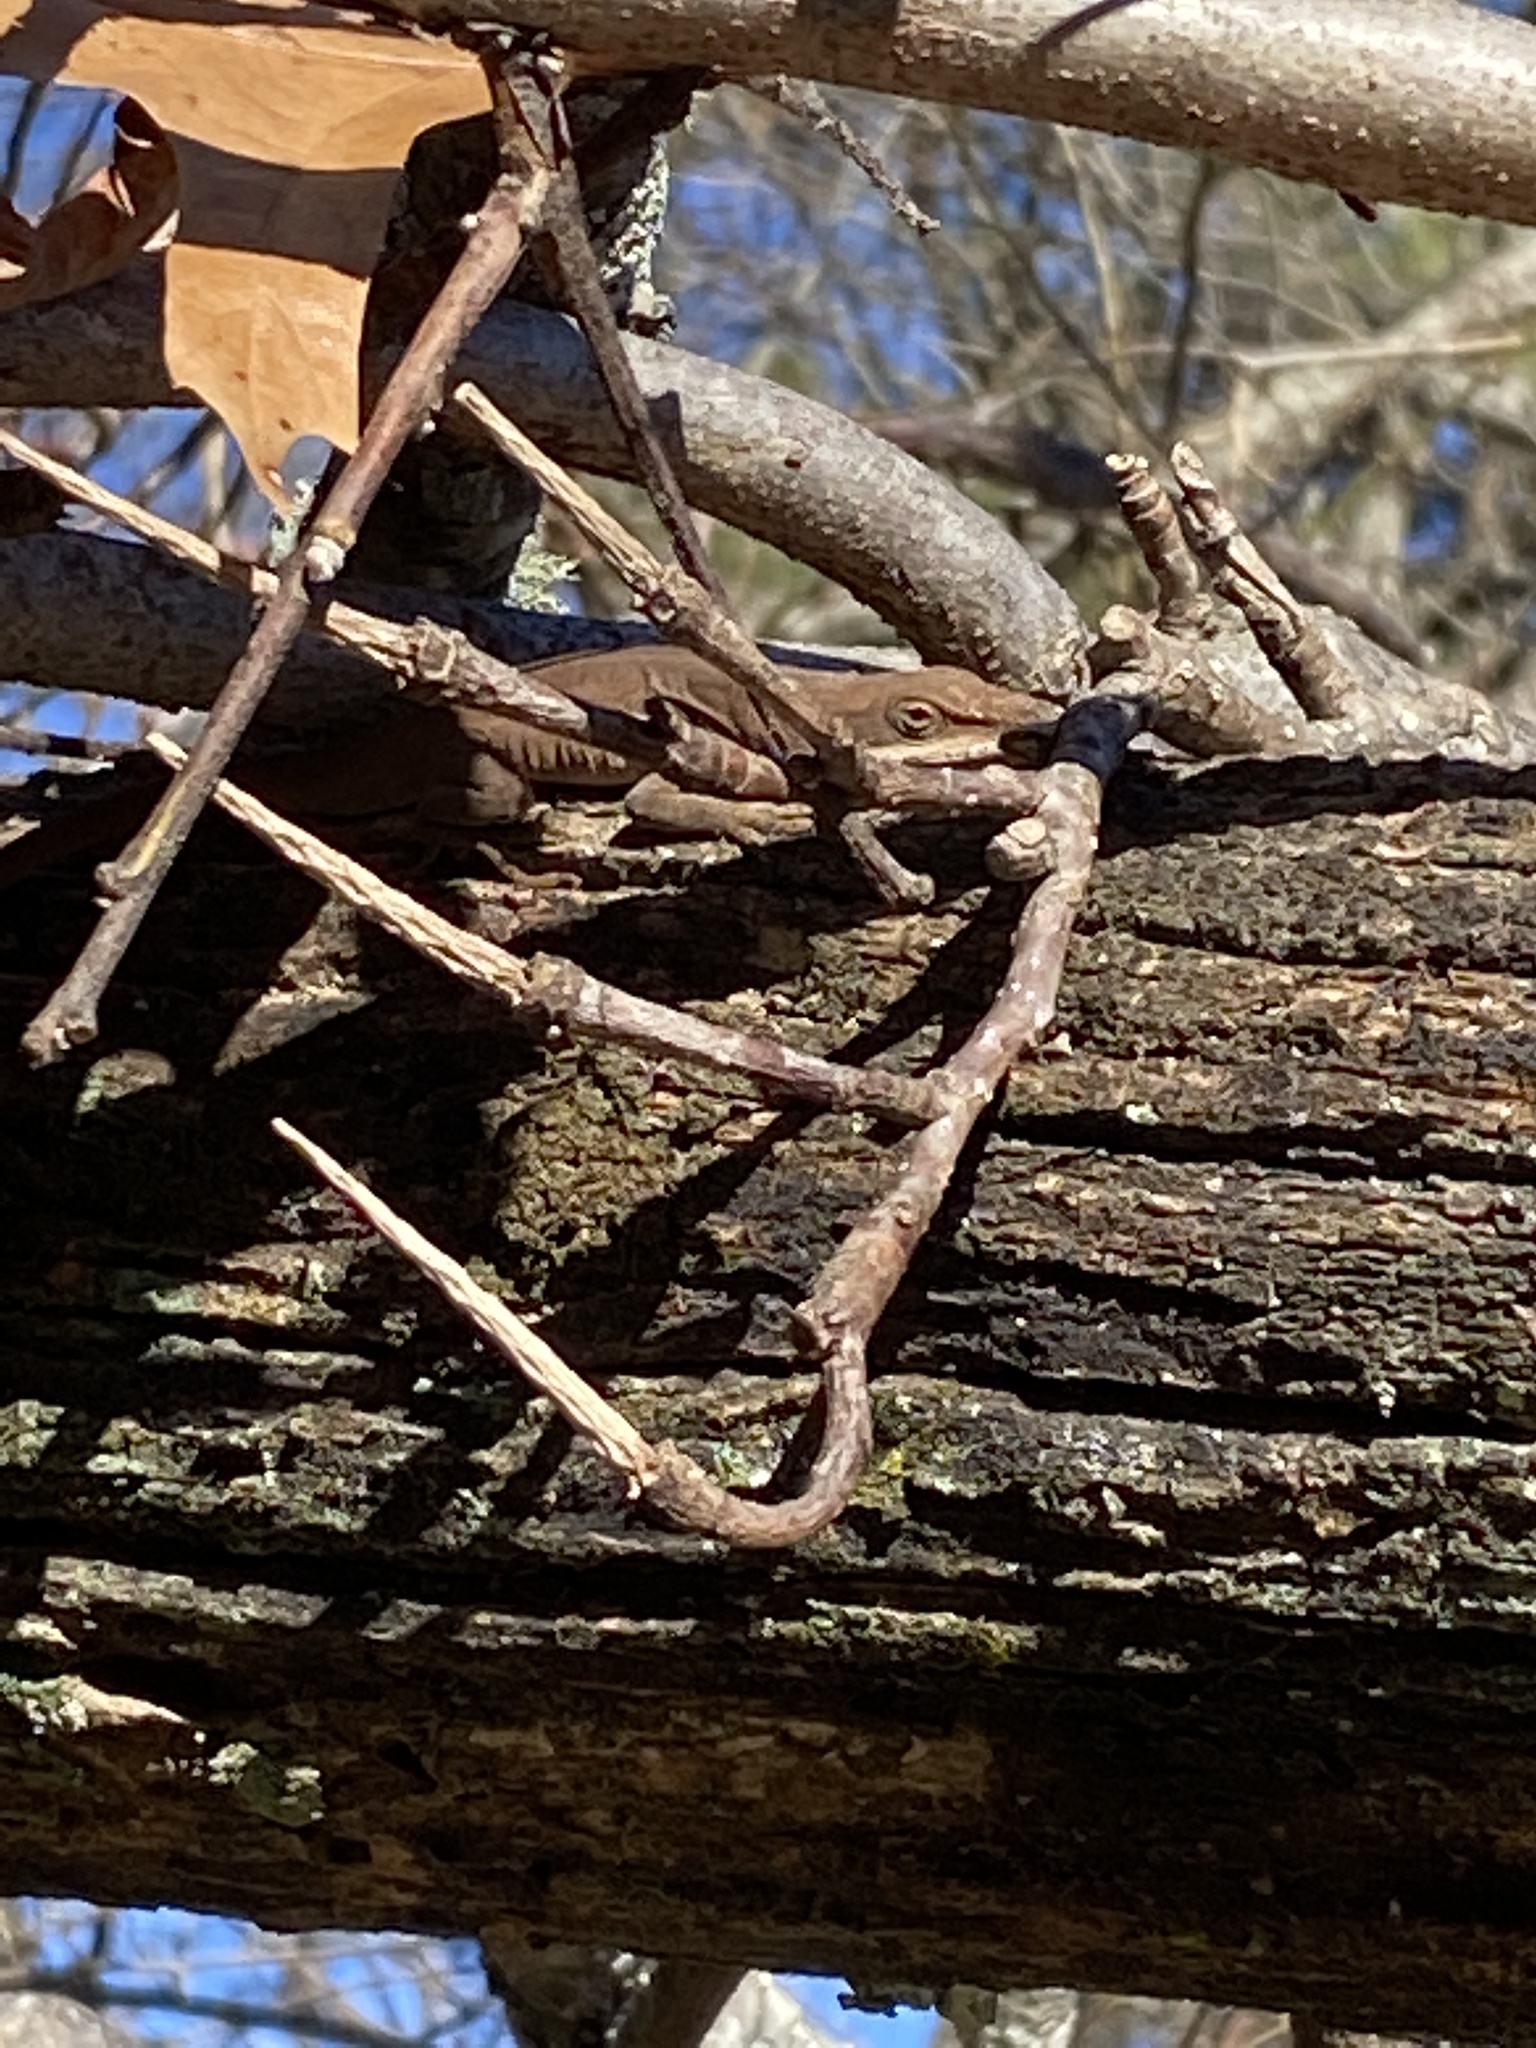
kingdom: Animalia
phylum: Chordata
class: Squamata
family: Dactyloidae
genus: Anolis
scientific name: Anolis carolinensis
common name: Green anole
